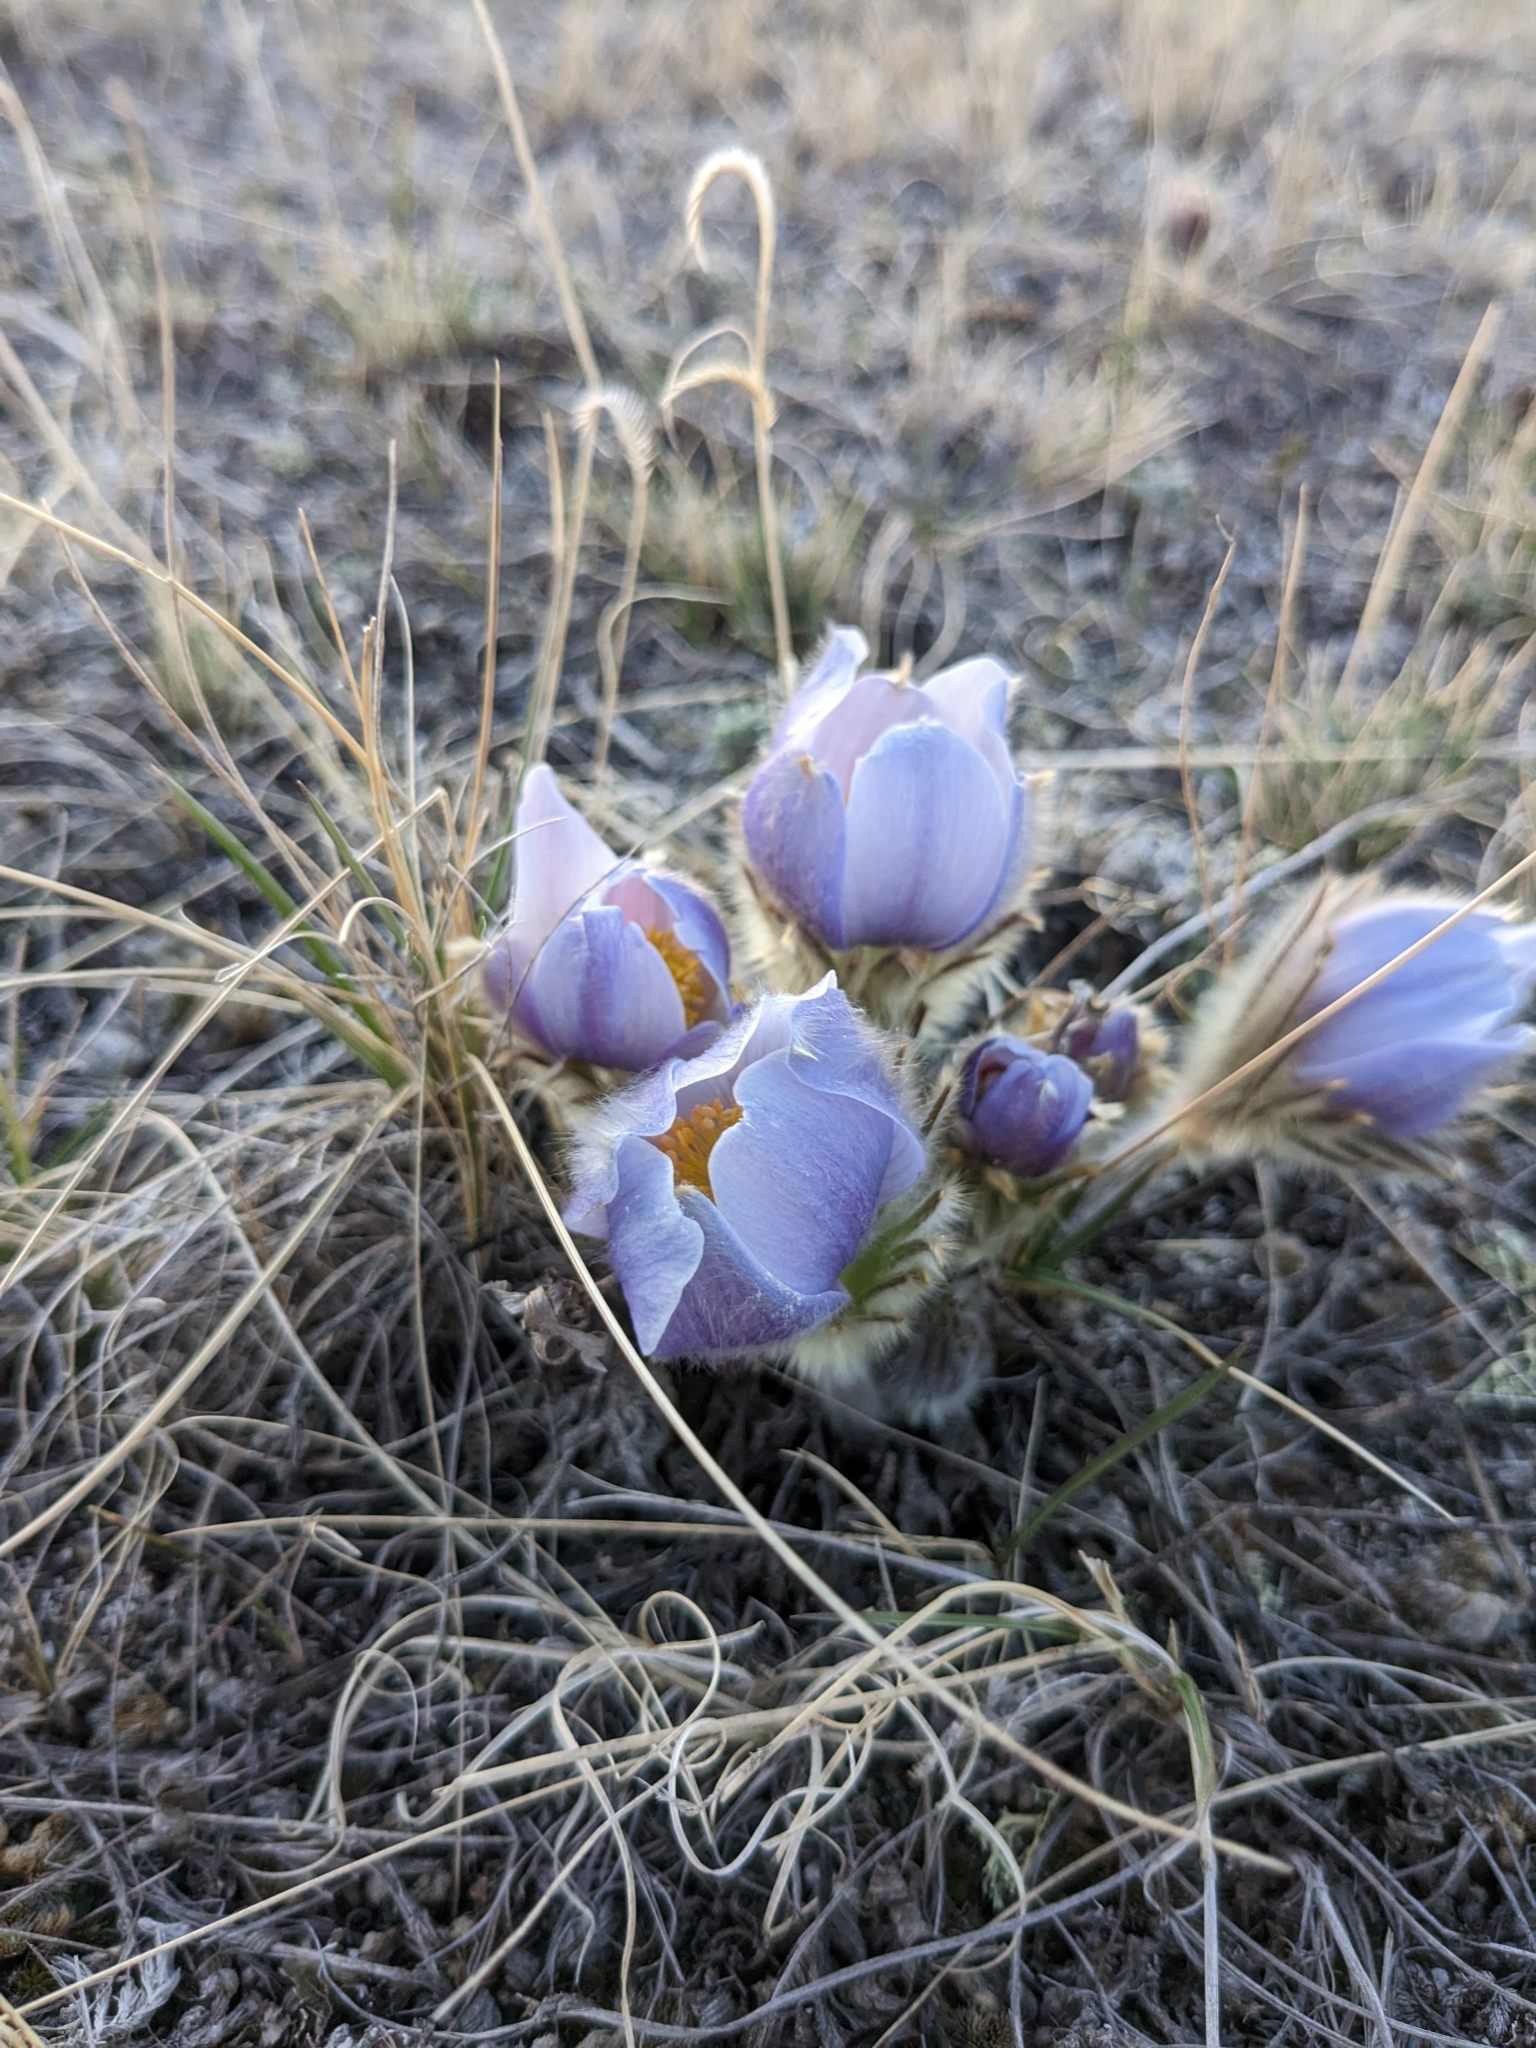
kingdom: Plantae
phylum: Tracheophyta
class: Magnoliopsida
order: Ranunculales
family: Ranunculaceae
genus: Pulsatilla
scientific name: Pulsatilla nuttalliana
